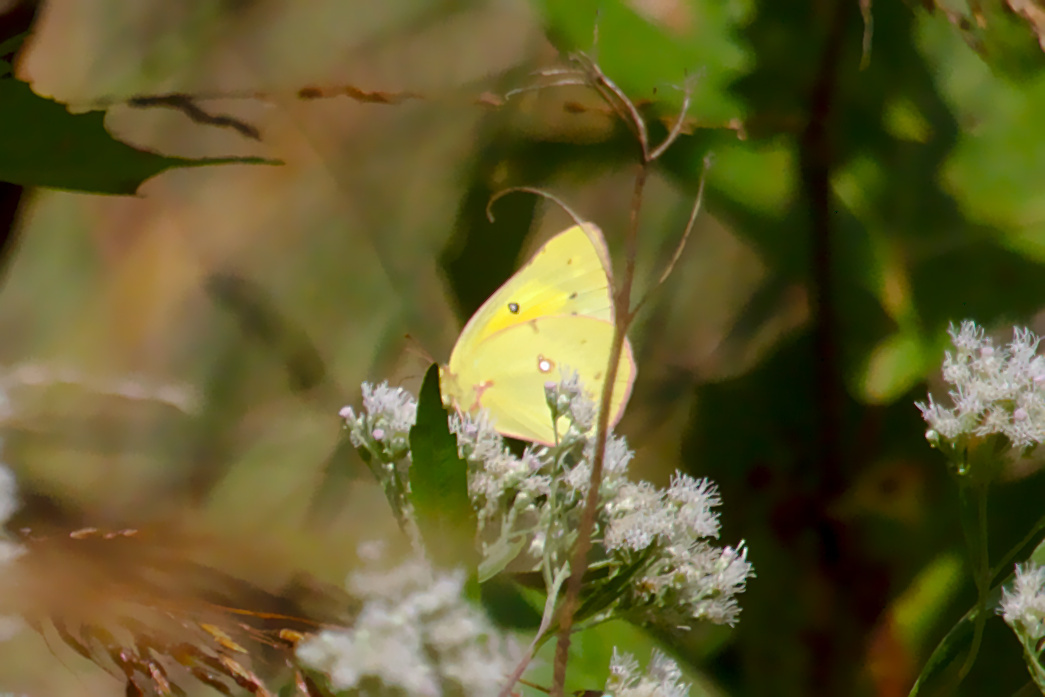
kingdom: Animalia
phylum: Arthropoda
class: Insecta
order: Lepidoptera
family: Pieridae
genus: Colias
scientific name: Colias eurytheme
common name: Alfalfa butterfly
